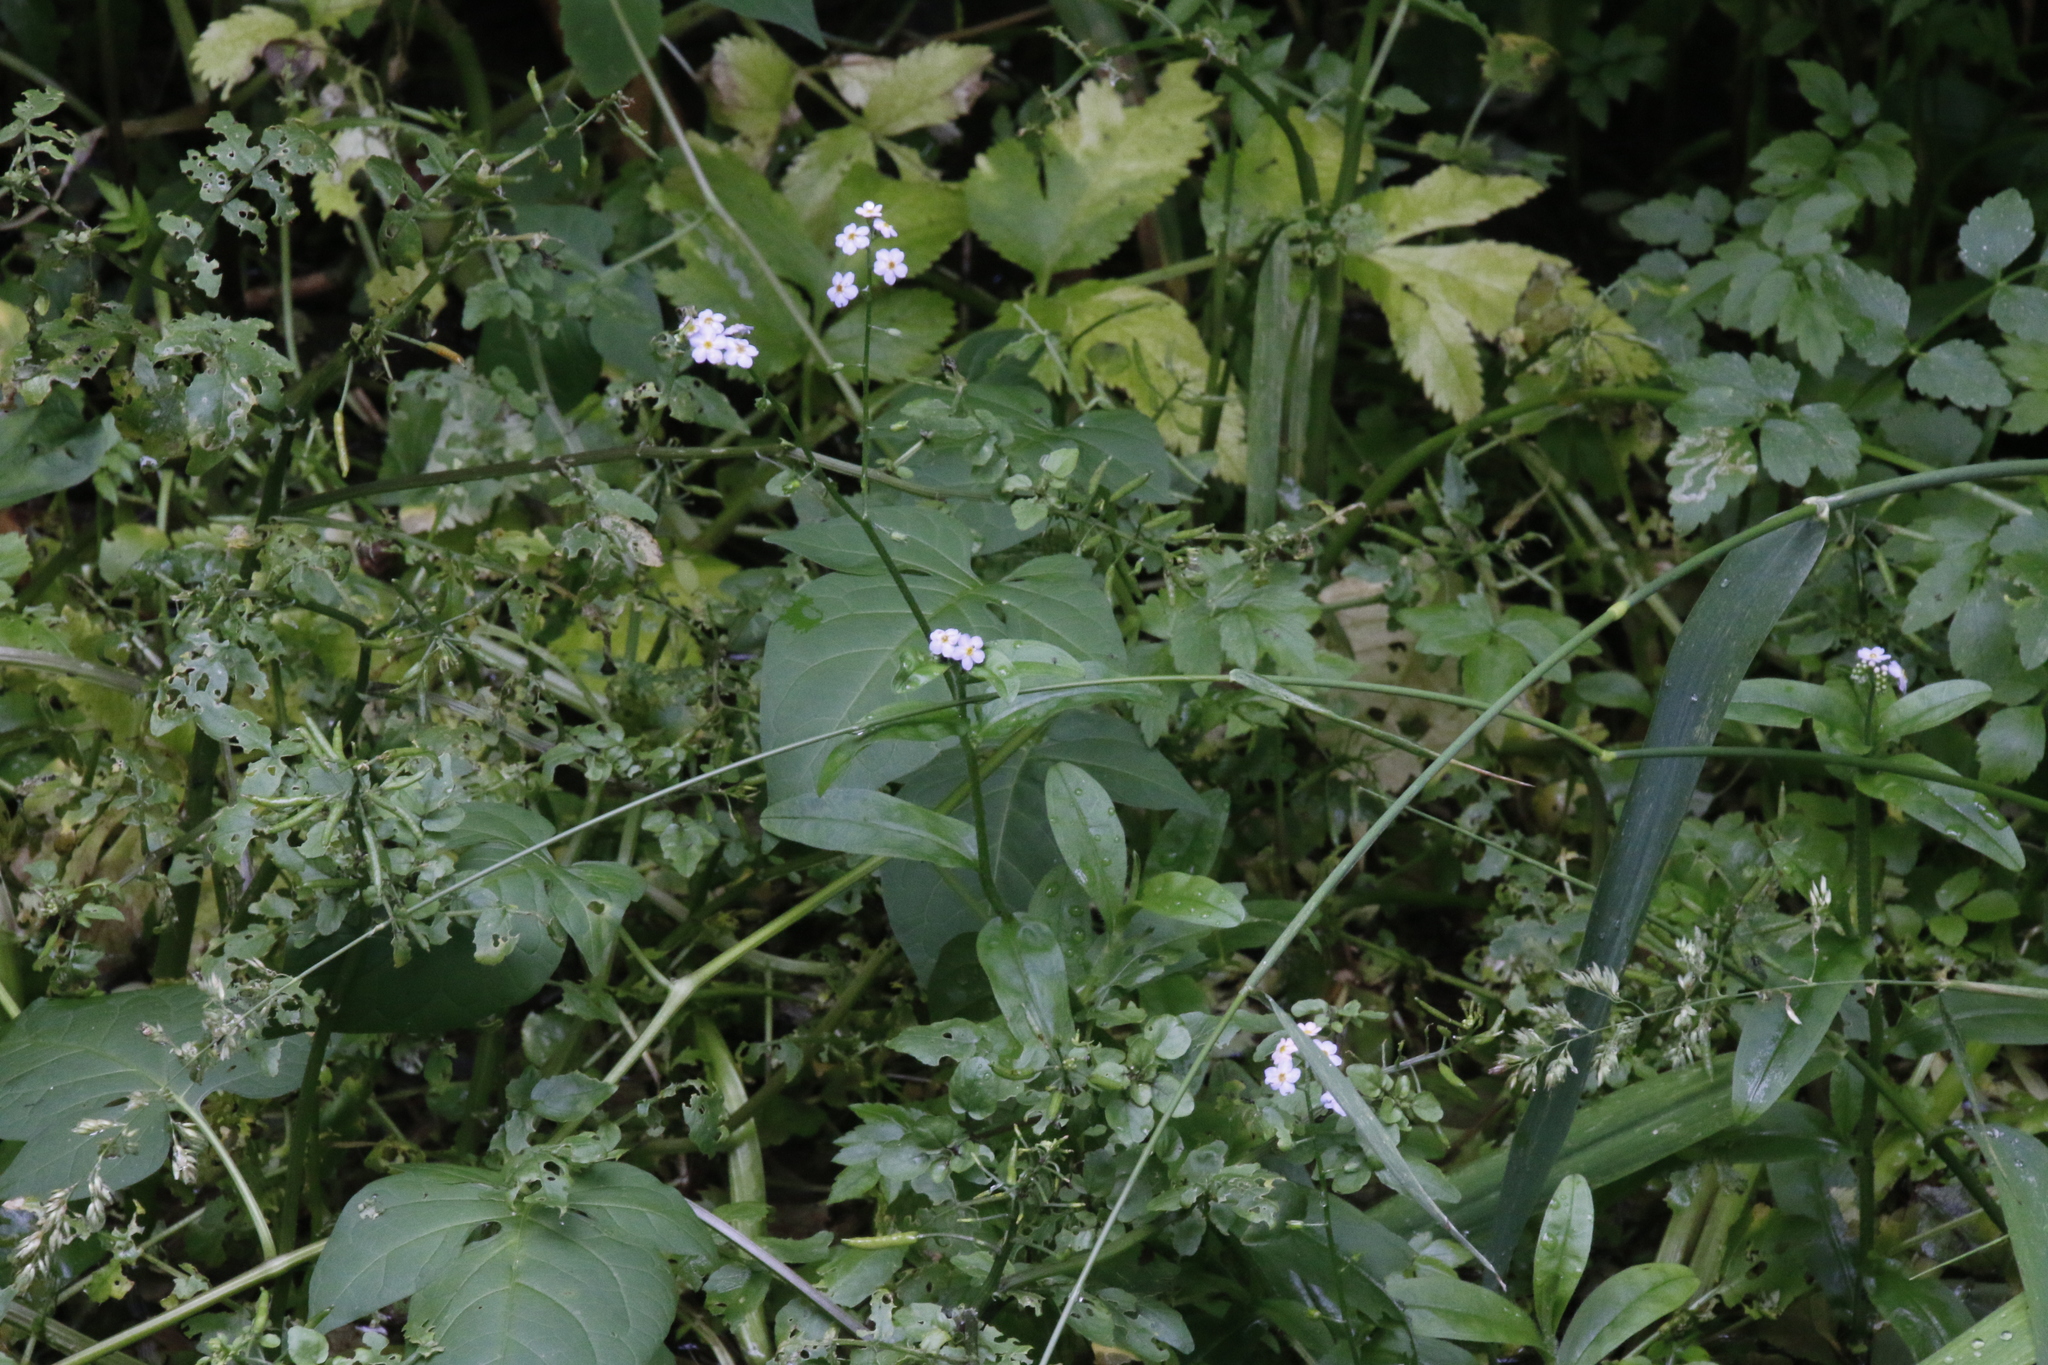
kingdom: Plantae
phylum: Tracheophyta
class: Magnoliopsida
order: Boraginales
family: Boraginaceae
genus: Myosotis
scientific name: Myosotis scorpioides
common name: Water forget-me-not
